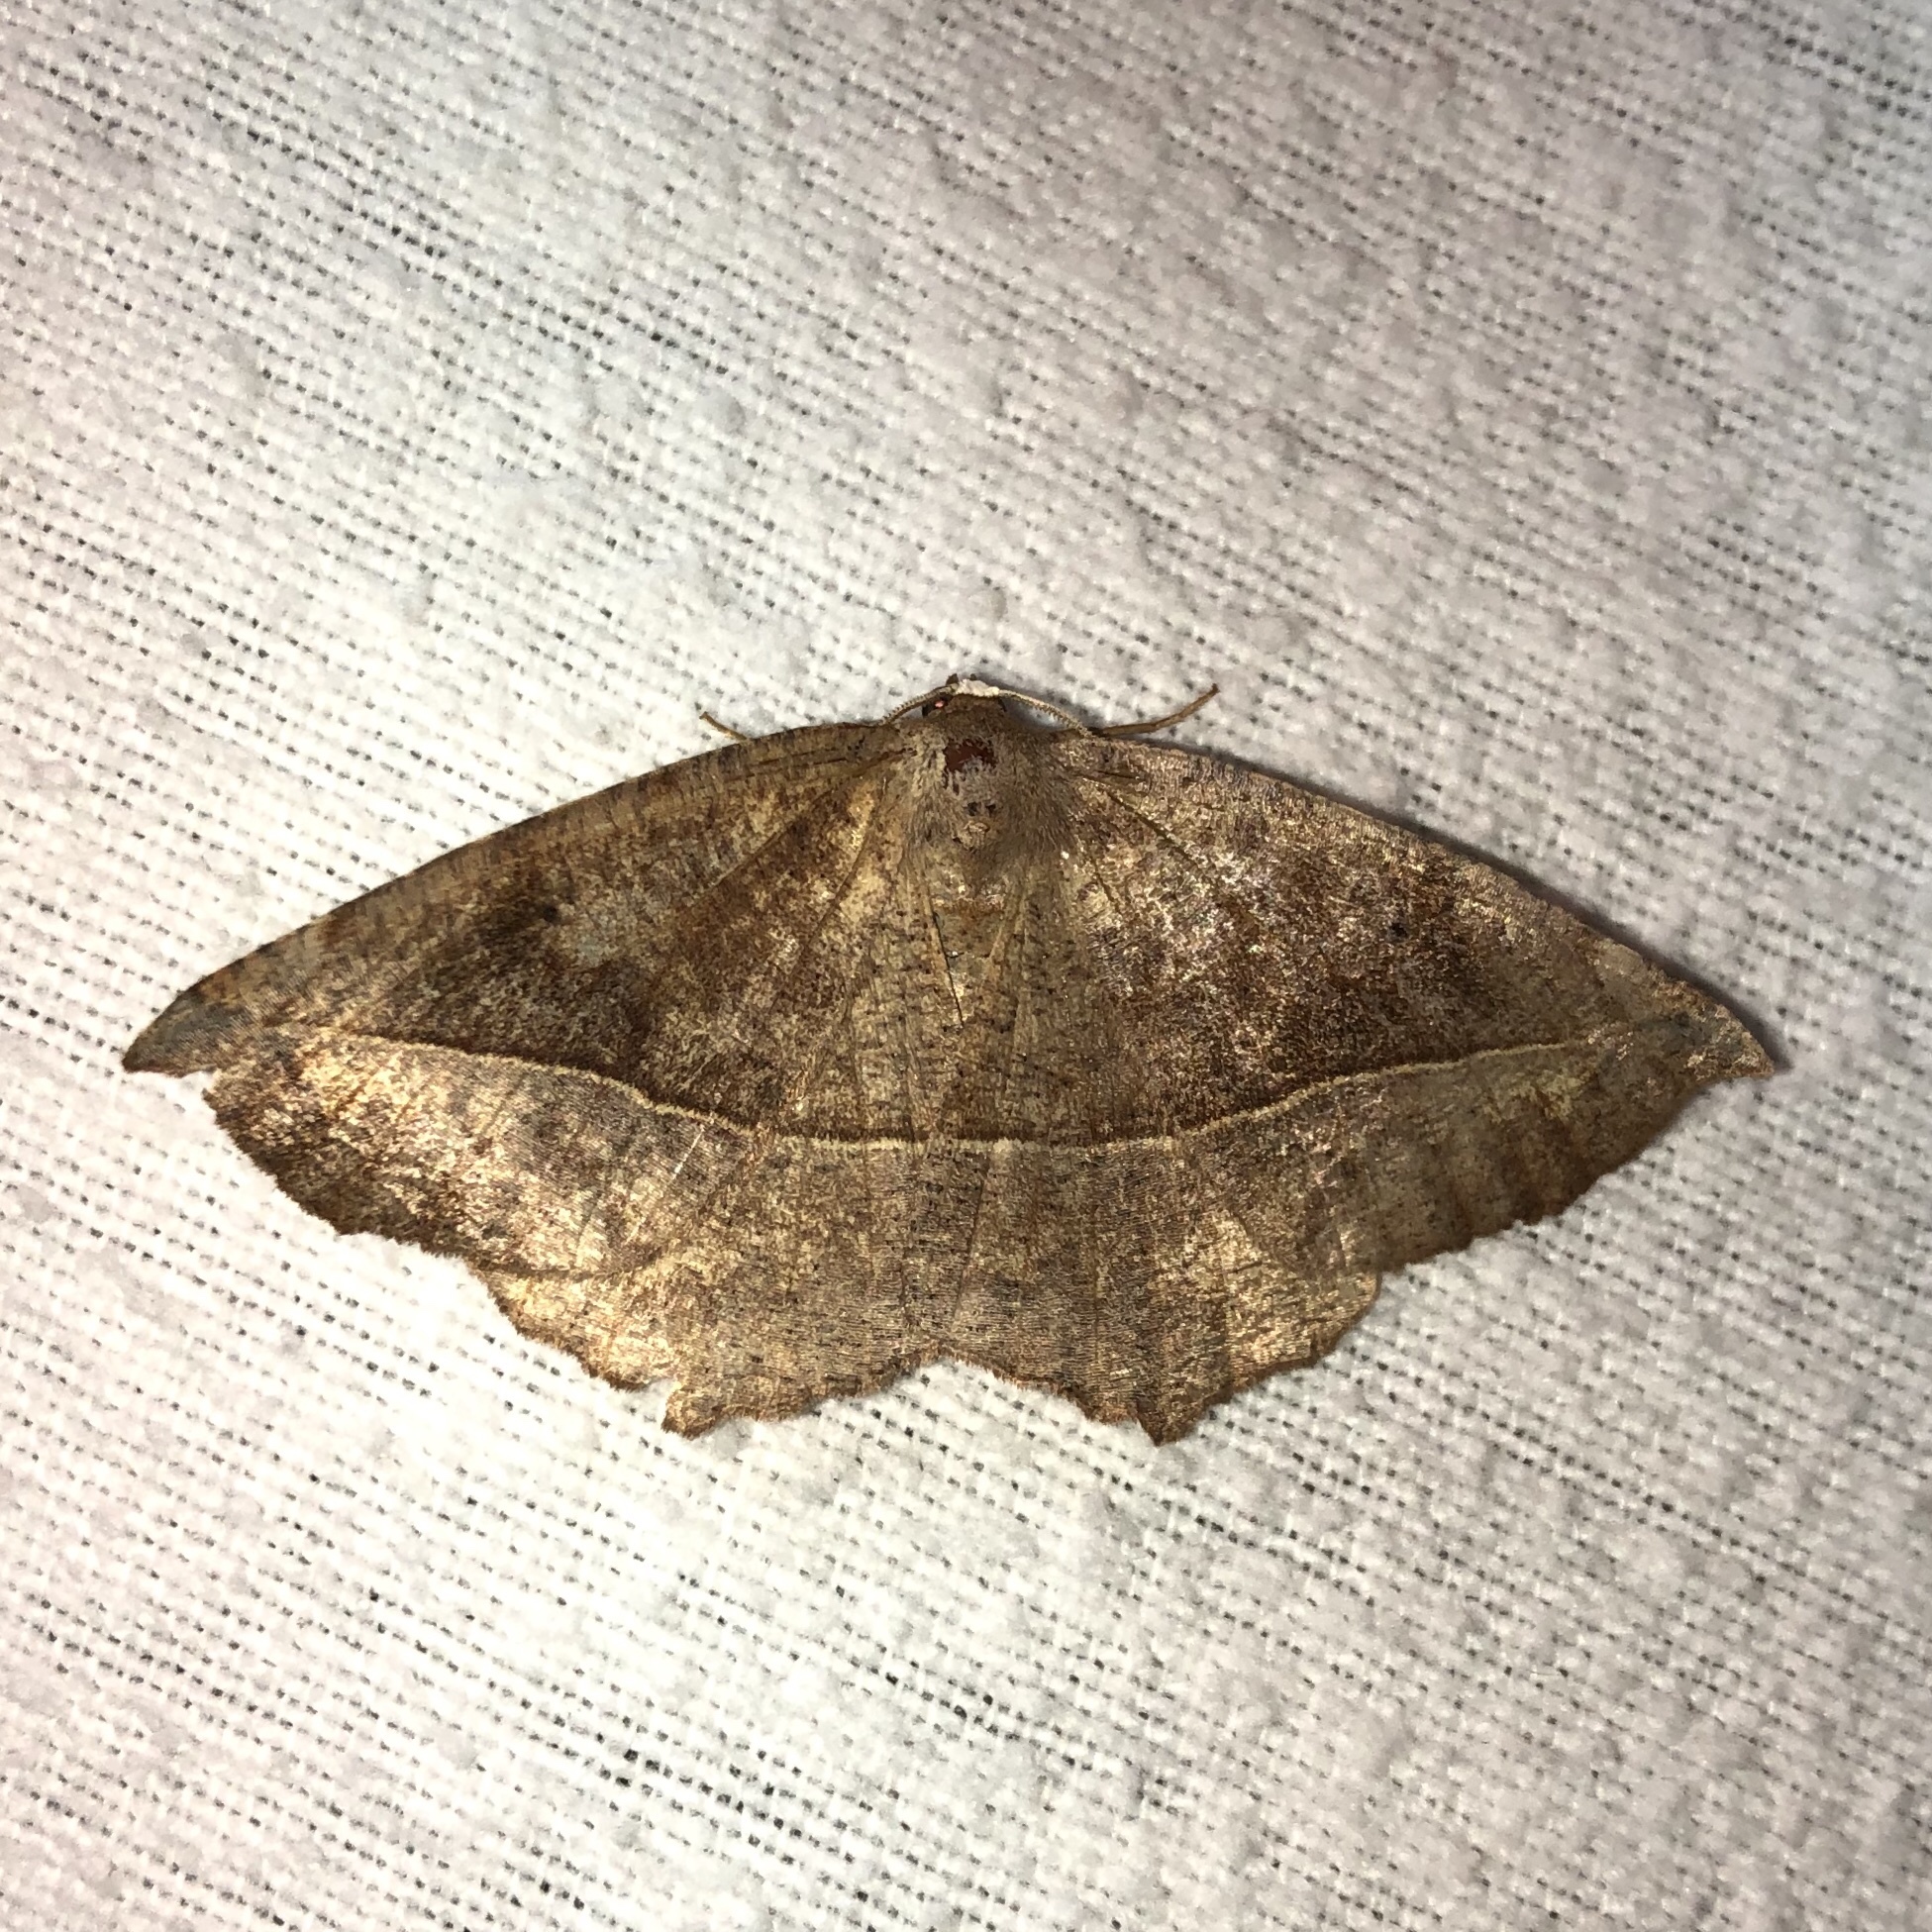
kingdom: Animalia
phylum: Arthropoda
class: Insecta
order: Lepidoptera
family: Geometridae
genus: Eutrapela
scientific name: Eutrapela clemataria
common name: Curved-toothed geometer
